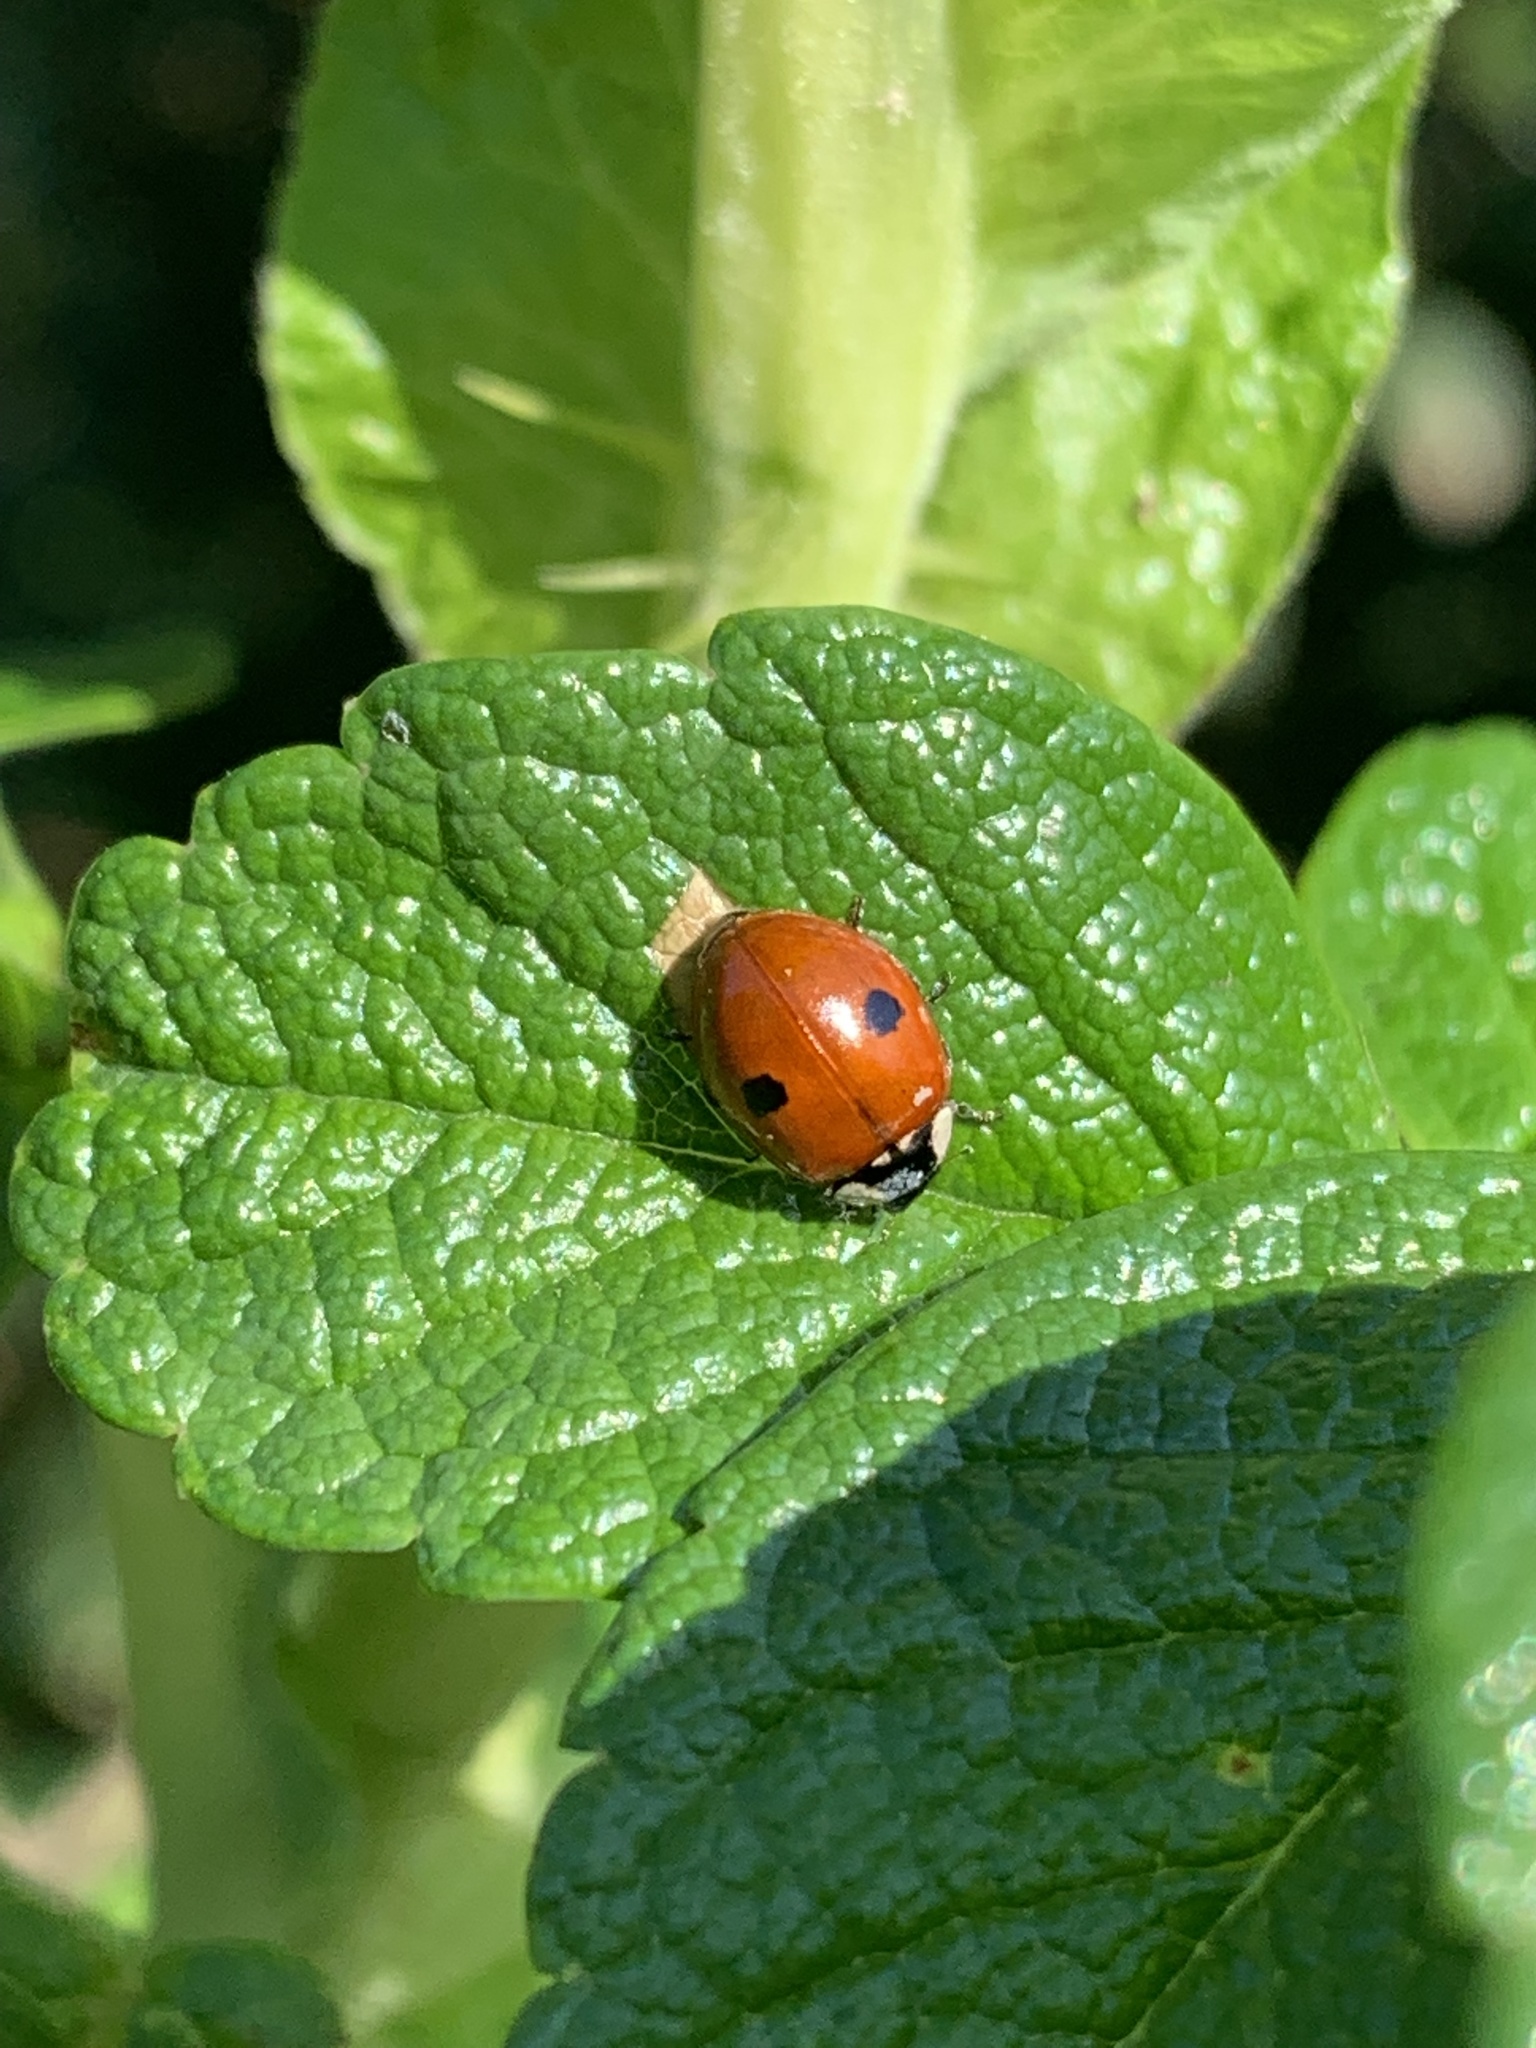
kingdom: Animalia
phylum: Arthropoda
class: Insecta
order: Coleoptera
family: Coccinellidae
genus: Adalia
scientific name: Adalia bipunctata
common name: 2-spot ladybird
